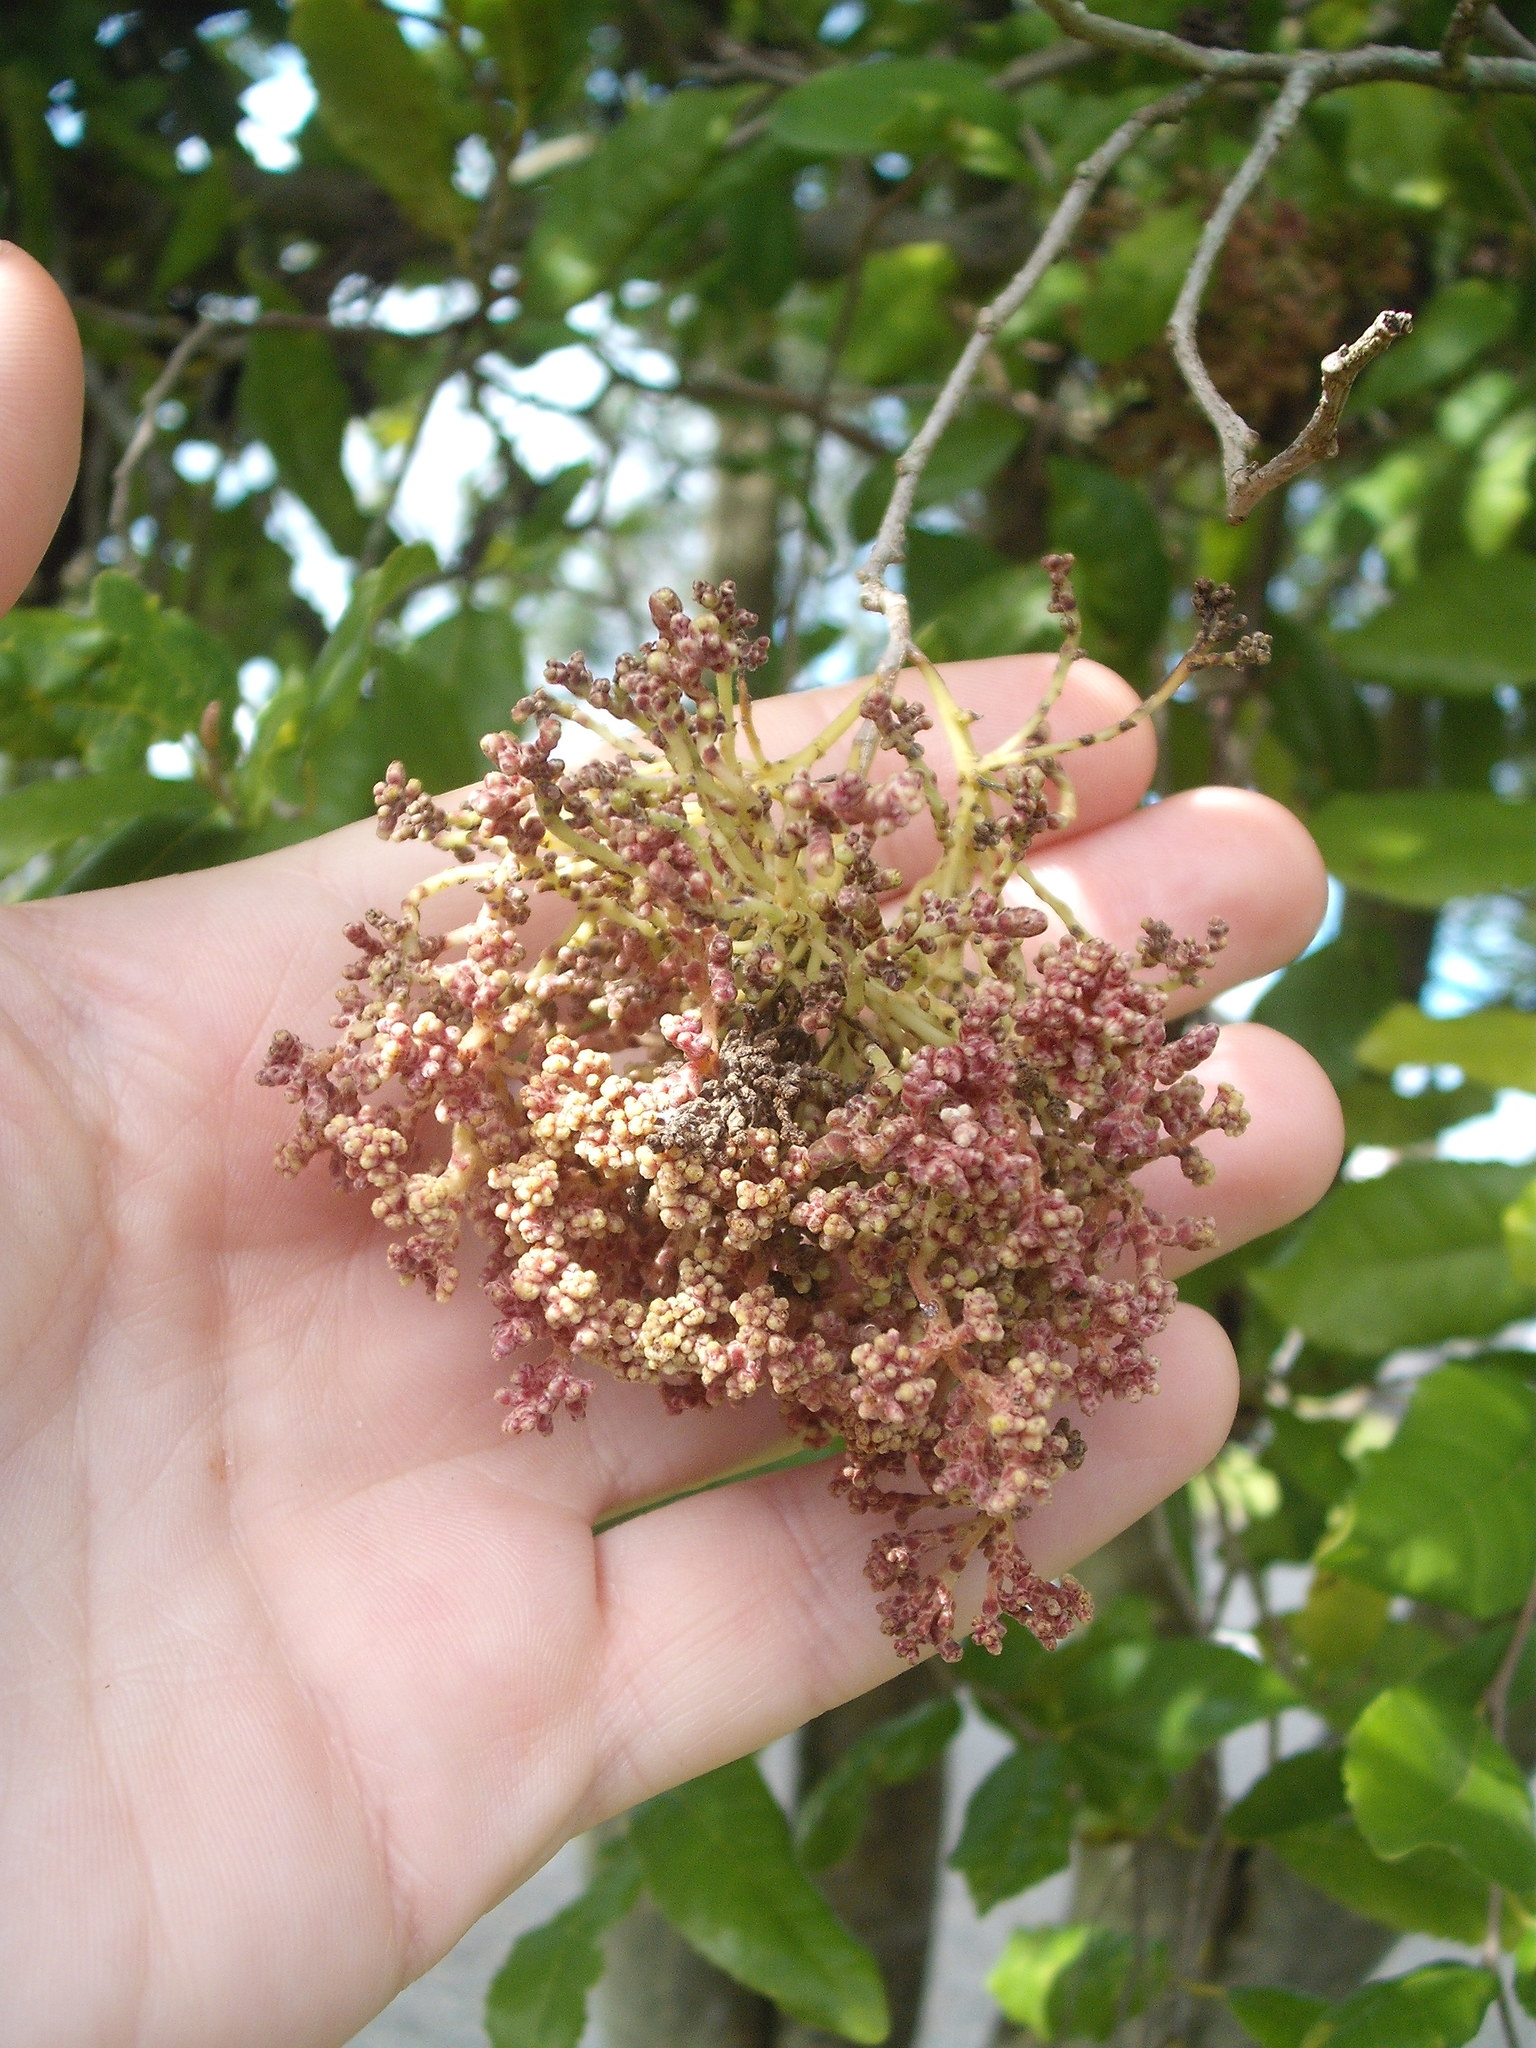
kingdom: Animalia
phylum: Arthropoda
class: Arachnida
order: Trombidiformes
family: Eriophyidae
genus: Eriophyes
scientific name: Eriophyes
